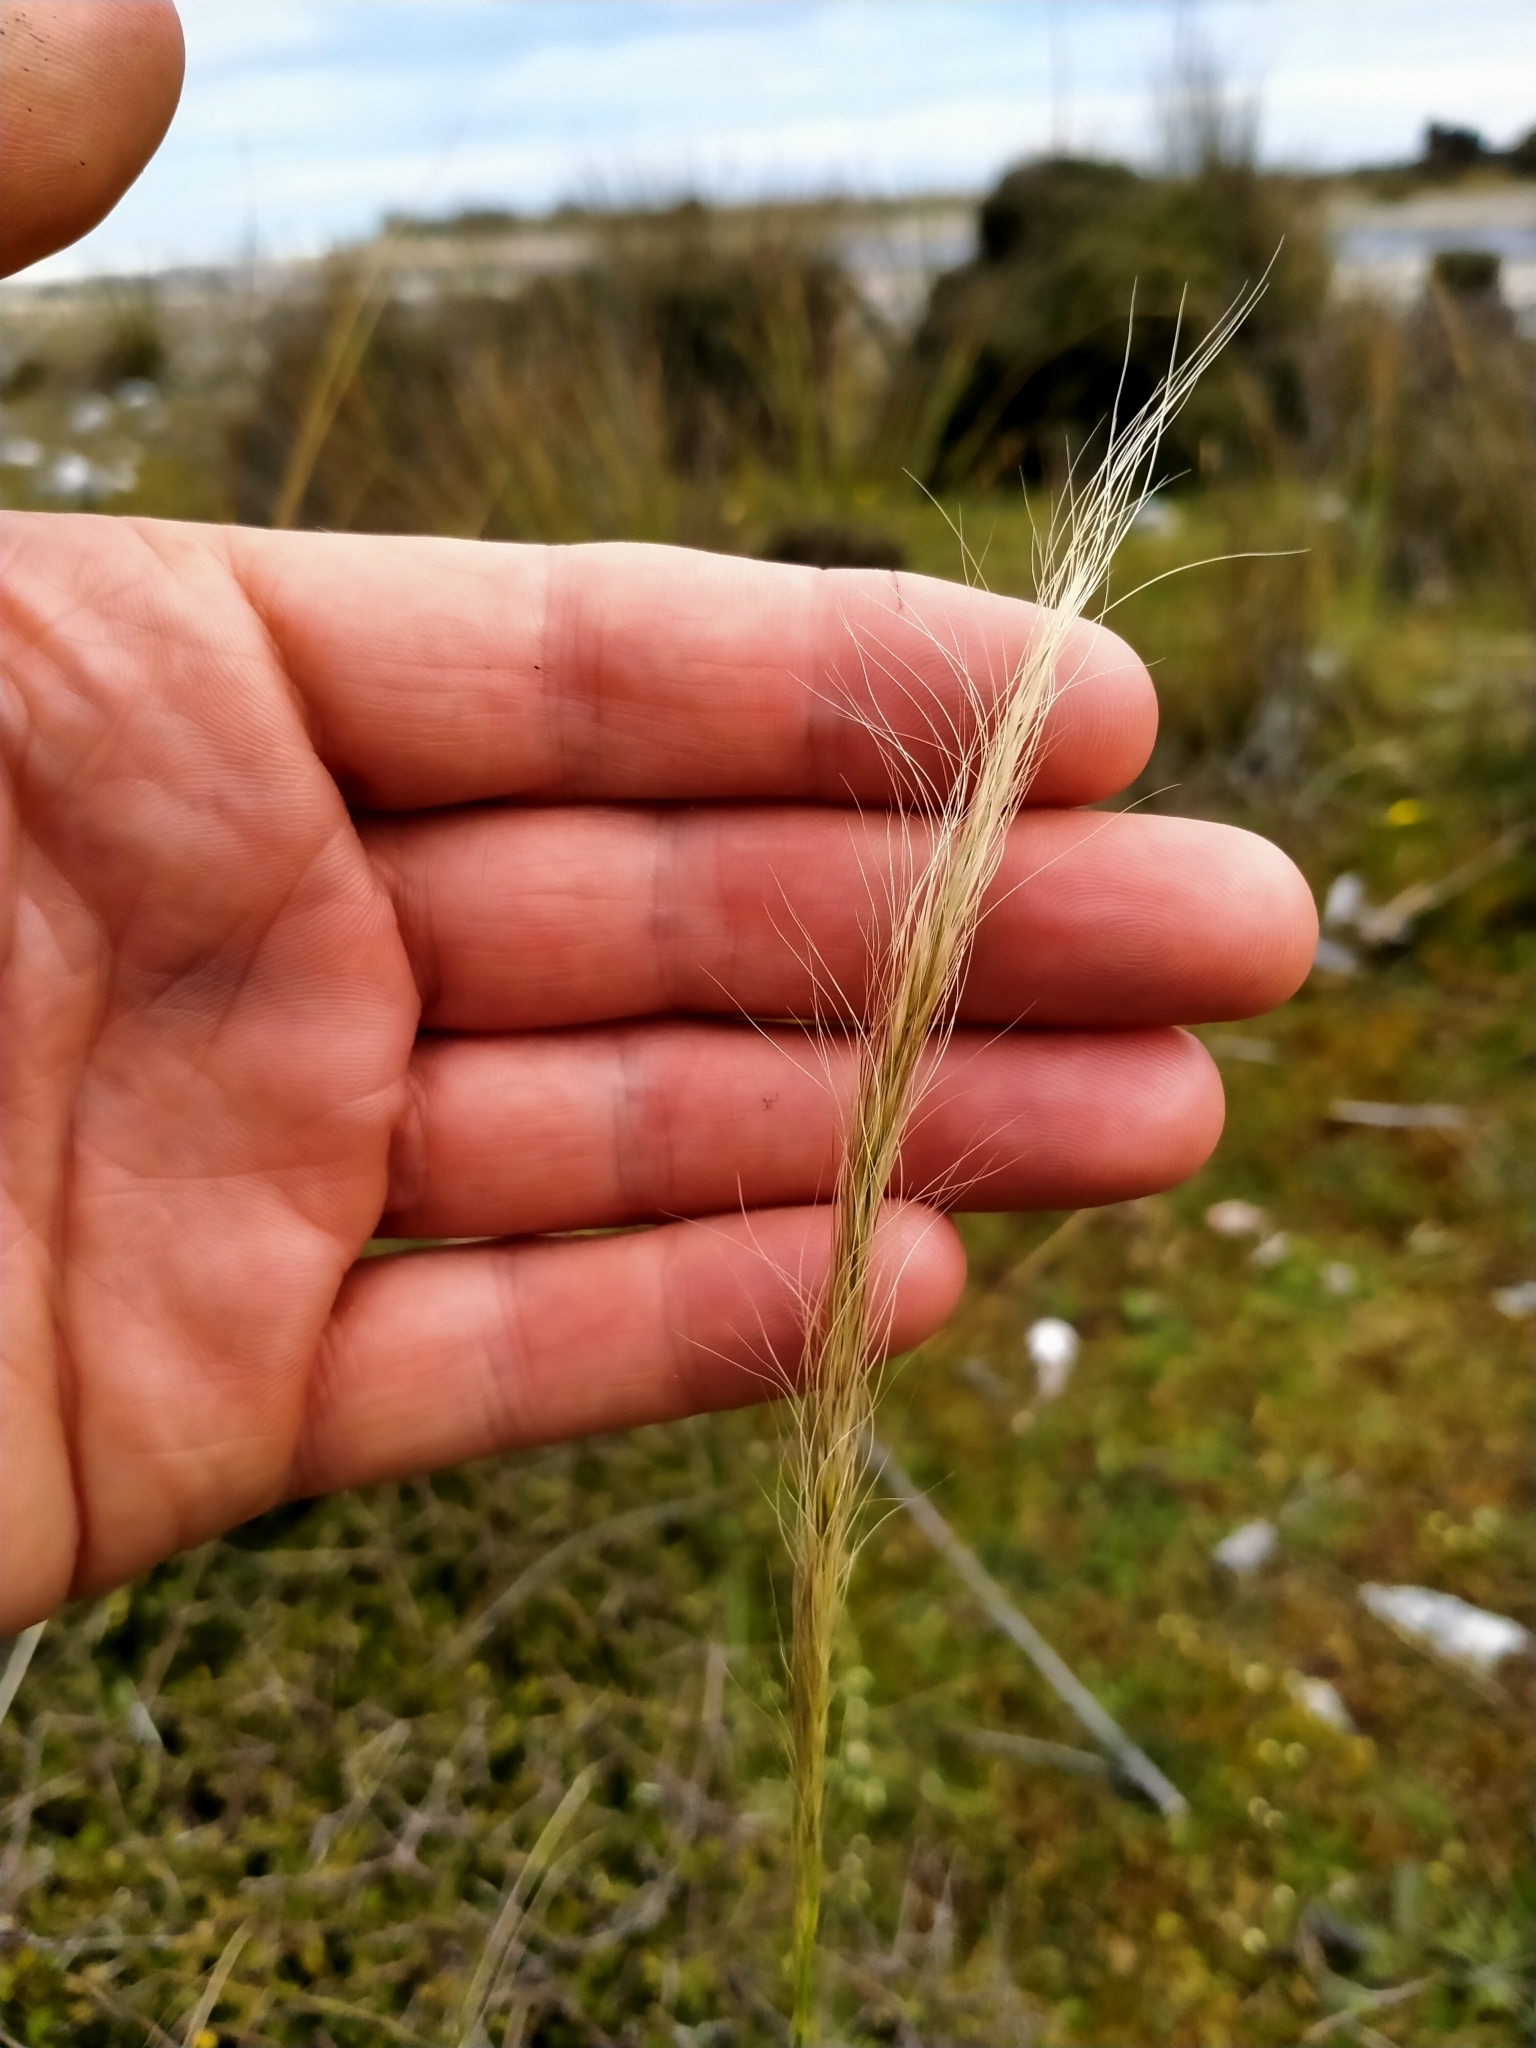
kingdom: Plantae
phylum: Tracheophyta
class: Liliopsida
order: Poales
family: Poaceae
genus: Dichelachne
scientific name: Dichelachne crinita
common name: Clovenfoot plumegrass
